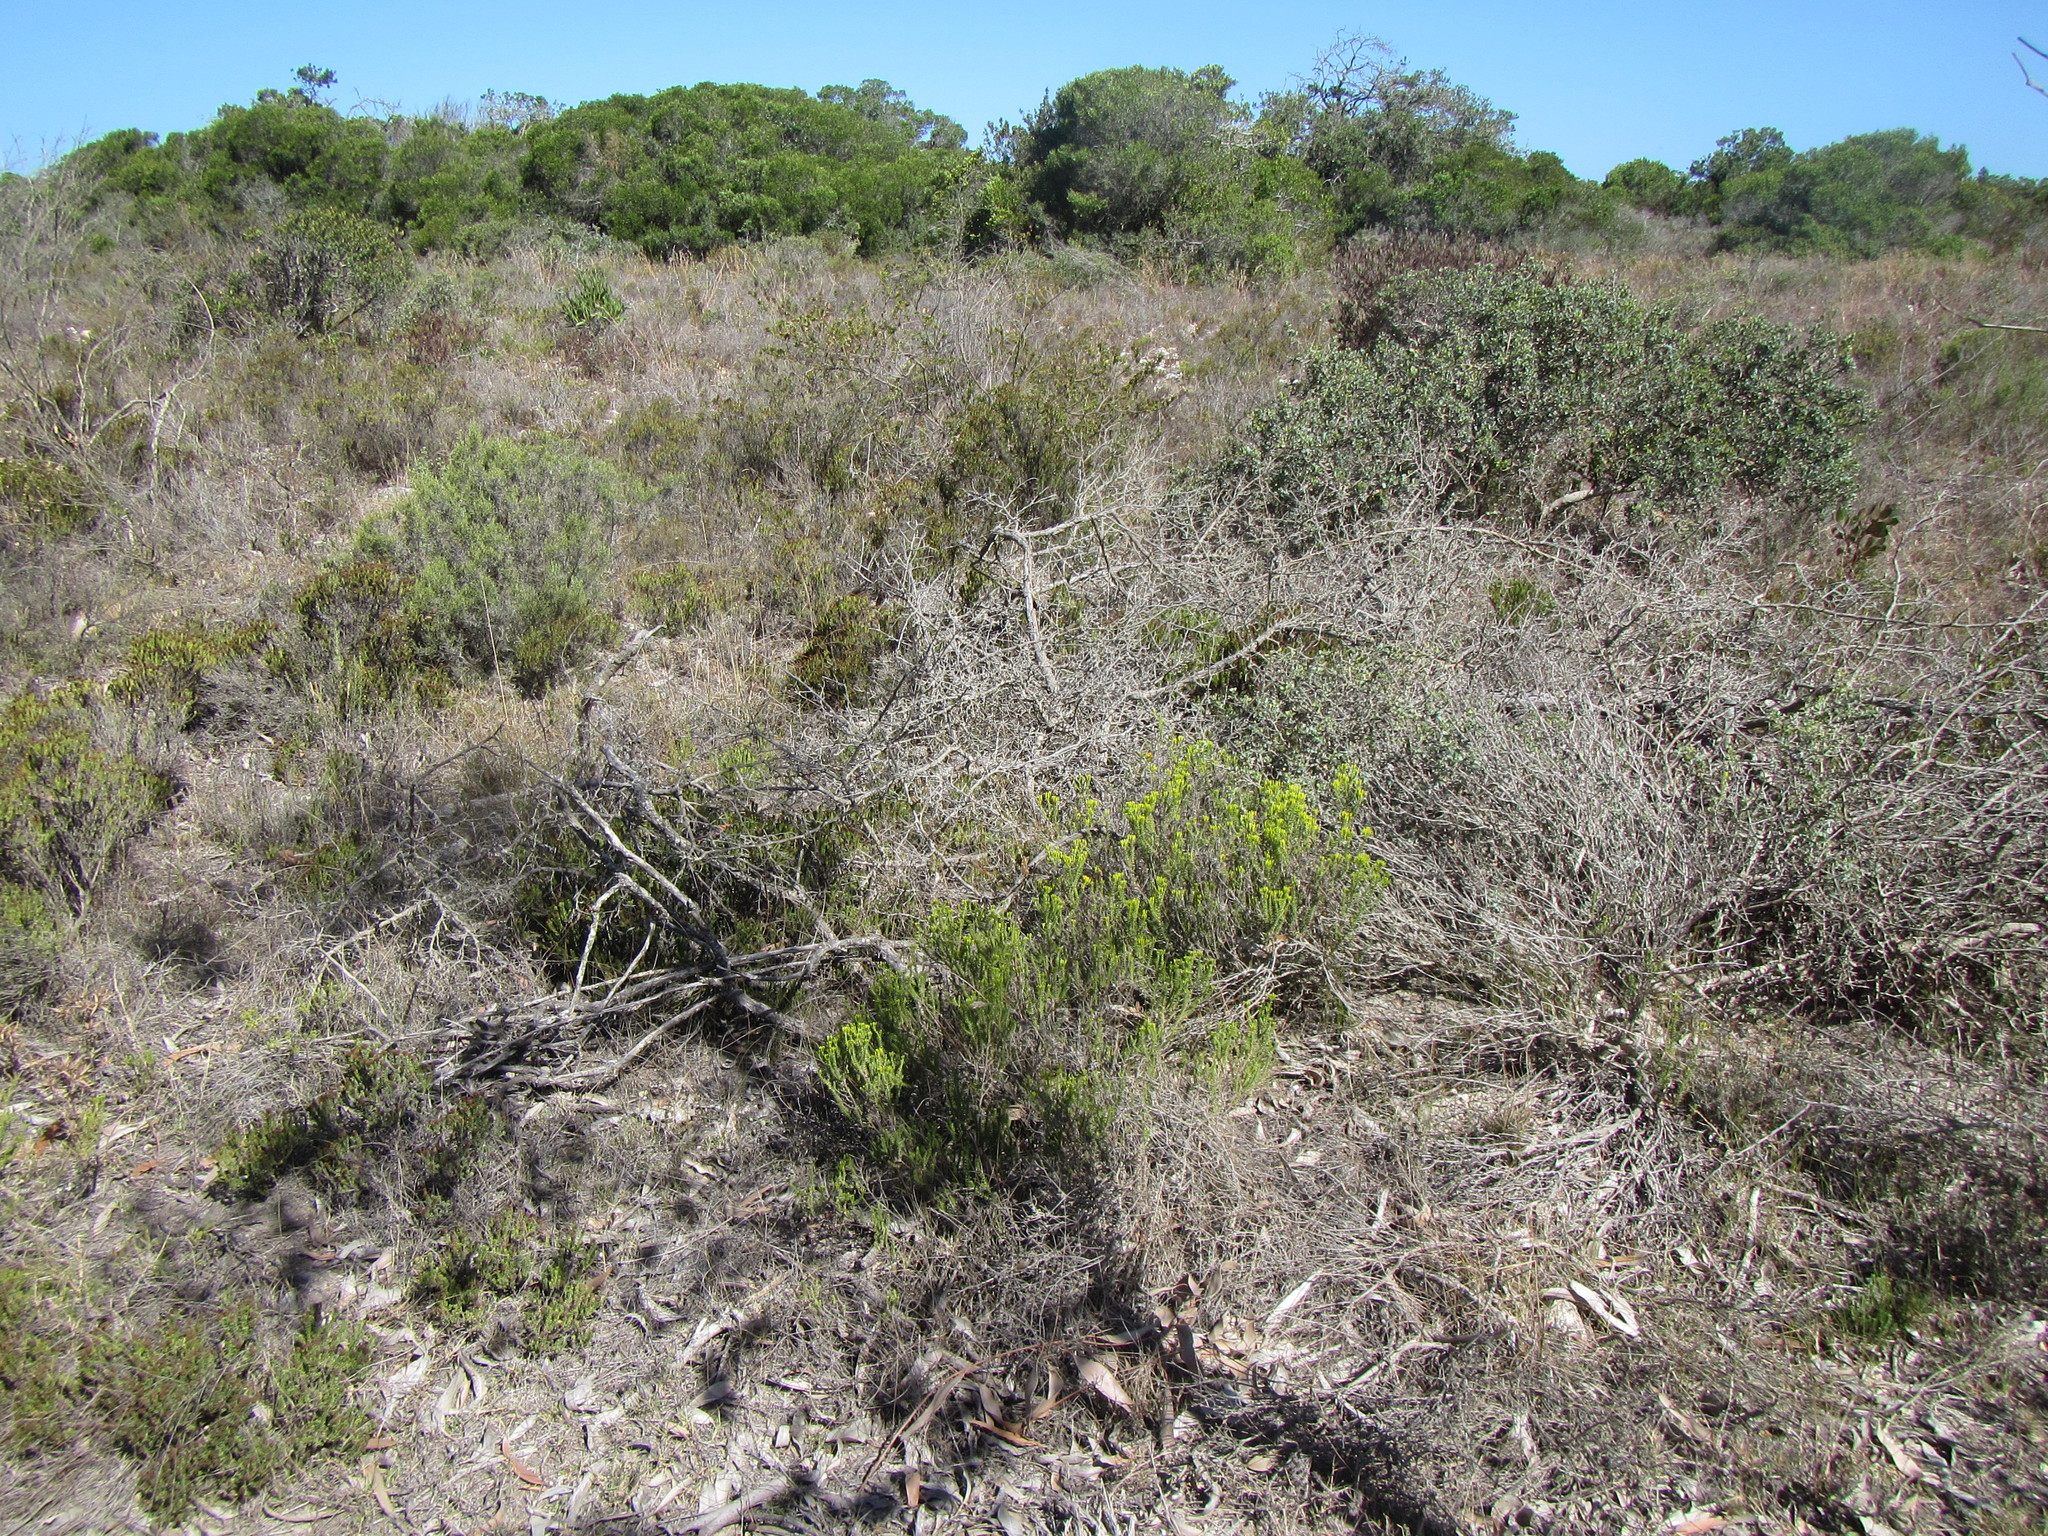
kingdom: Plantae
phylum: Tracheophyta
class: Magnoliopsida
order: Asterales
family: Asteraceae
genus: Pteronia
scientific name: Pteronia diosmifolia
